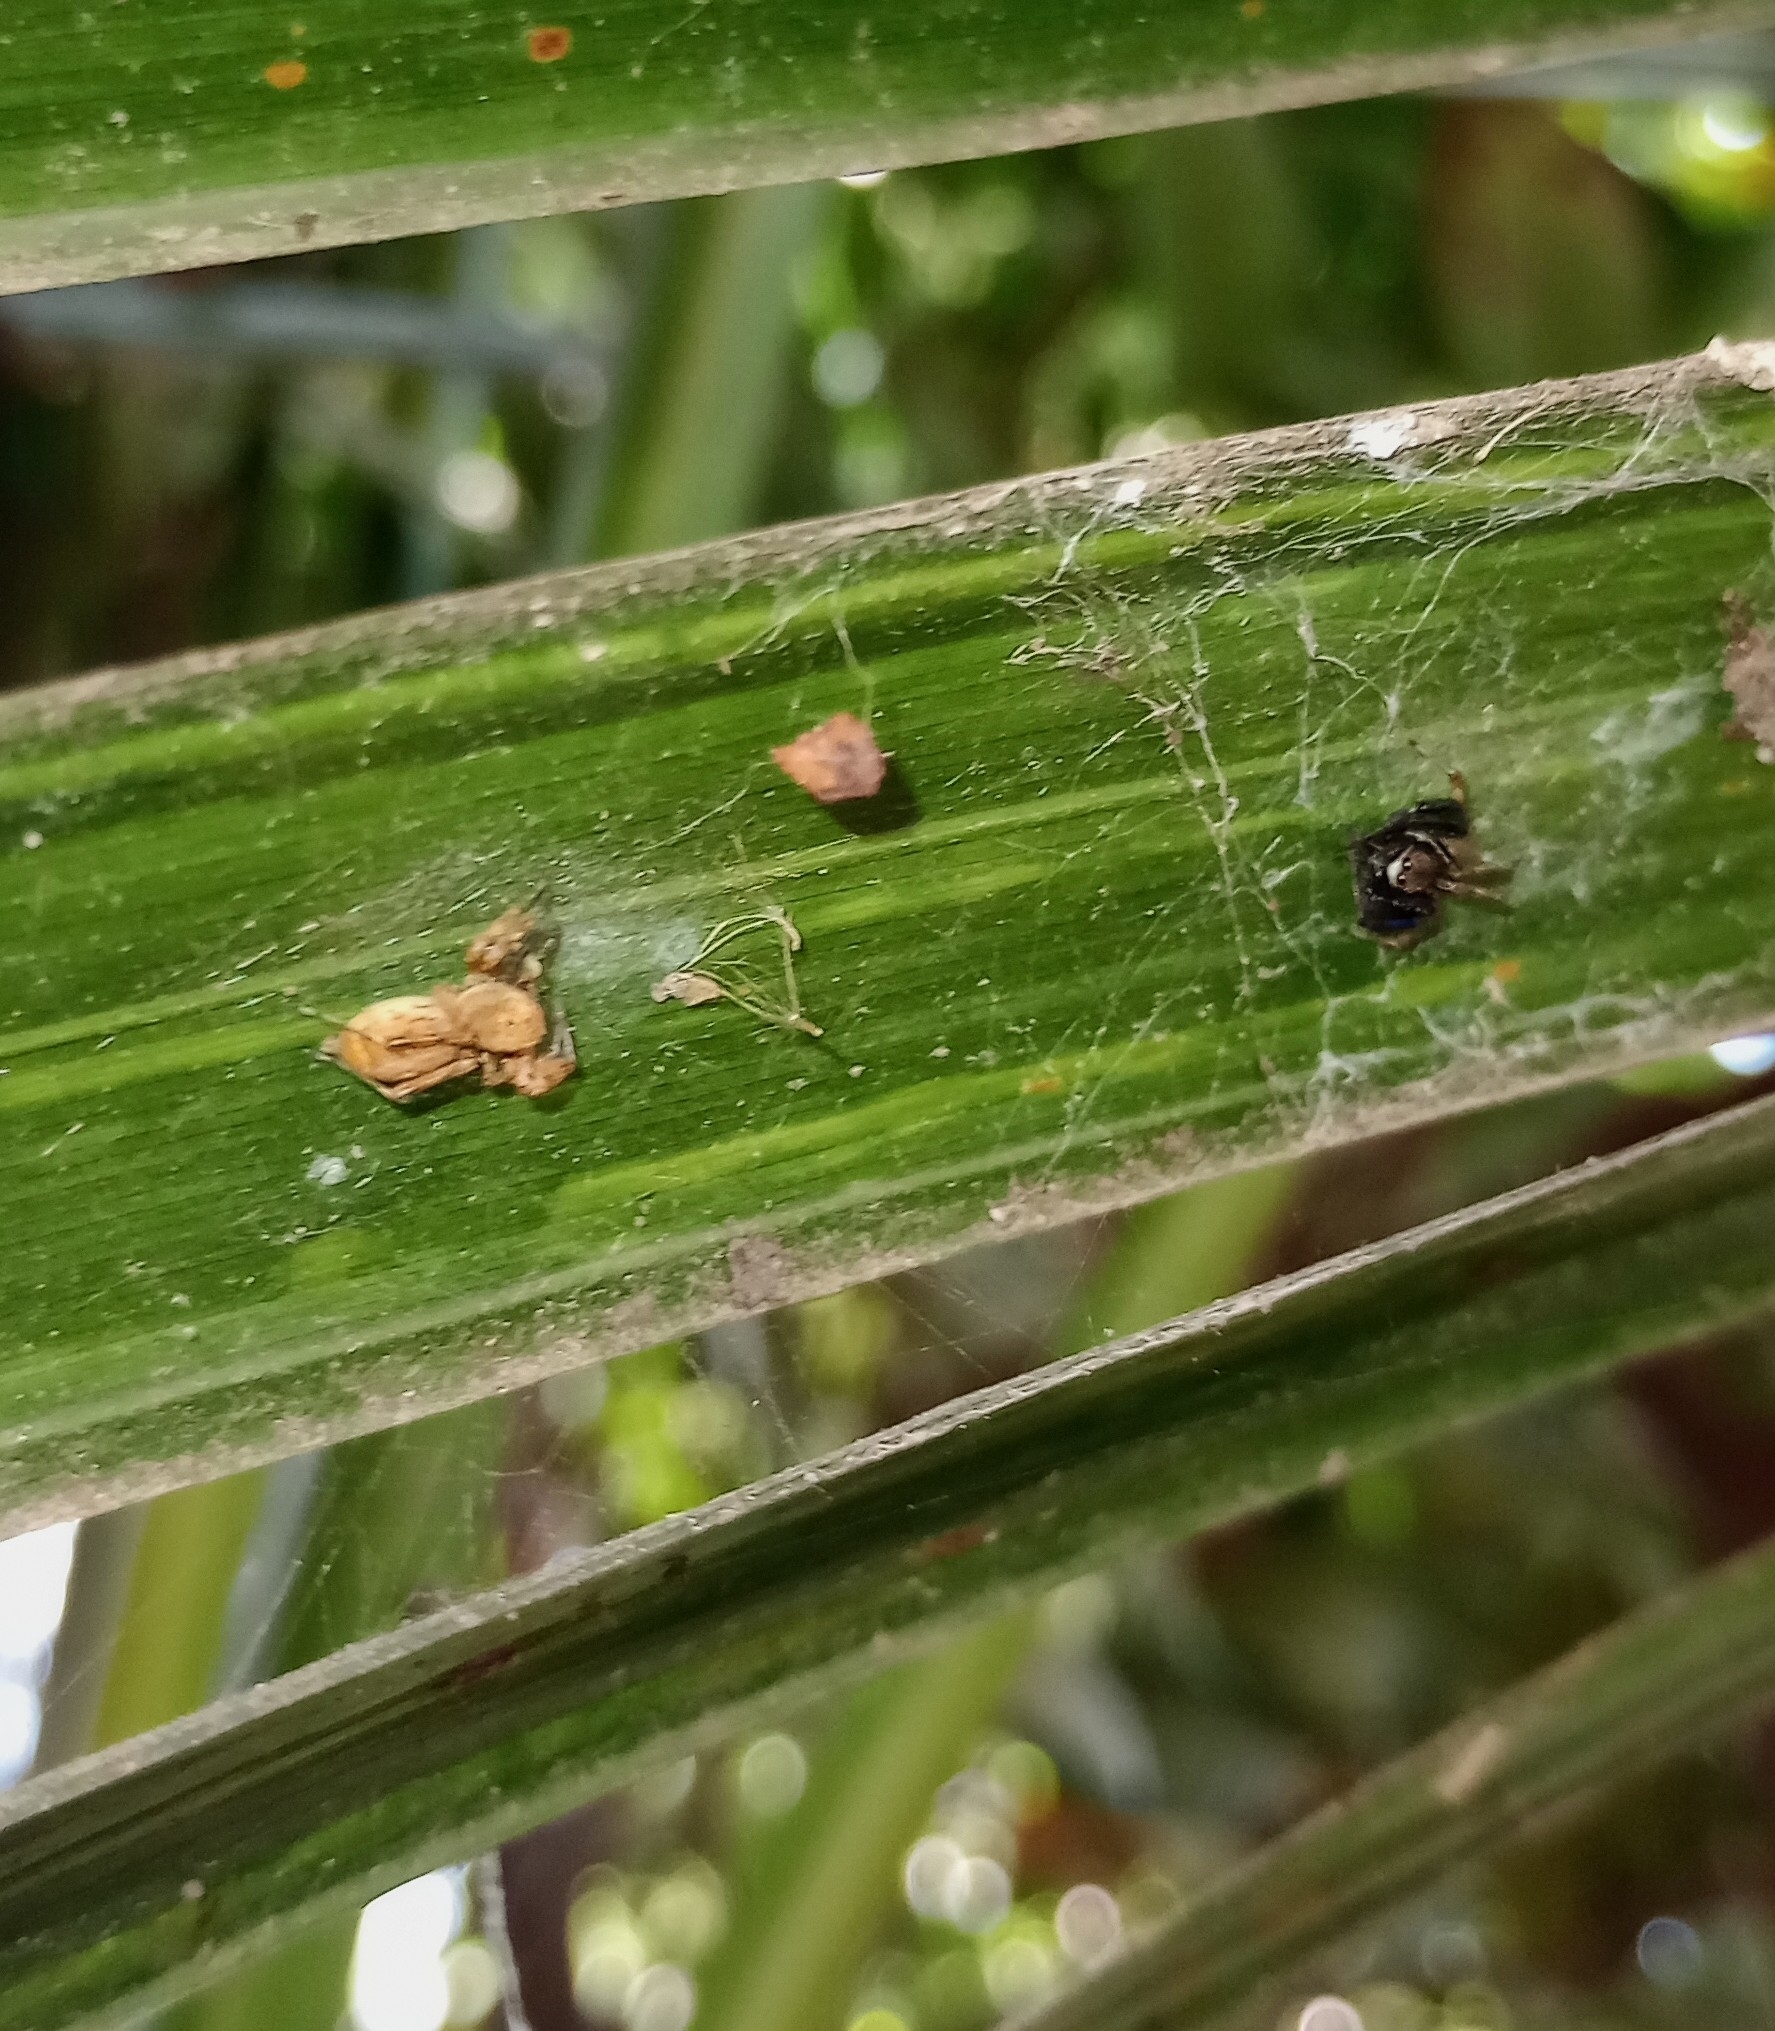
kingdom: Animalia
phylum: Arthropoda
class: Arachnida
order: Araneae
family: Salticidae
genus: Brettus
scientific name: Brettus cingulatus
